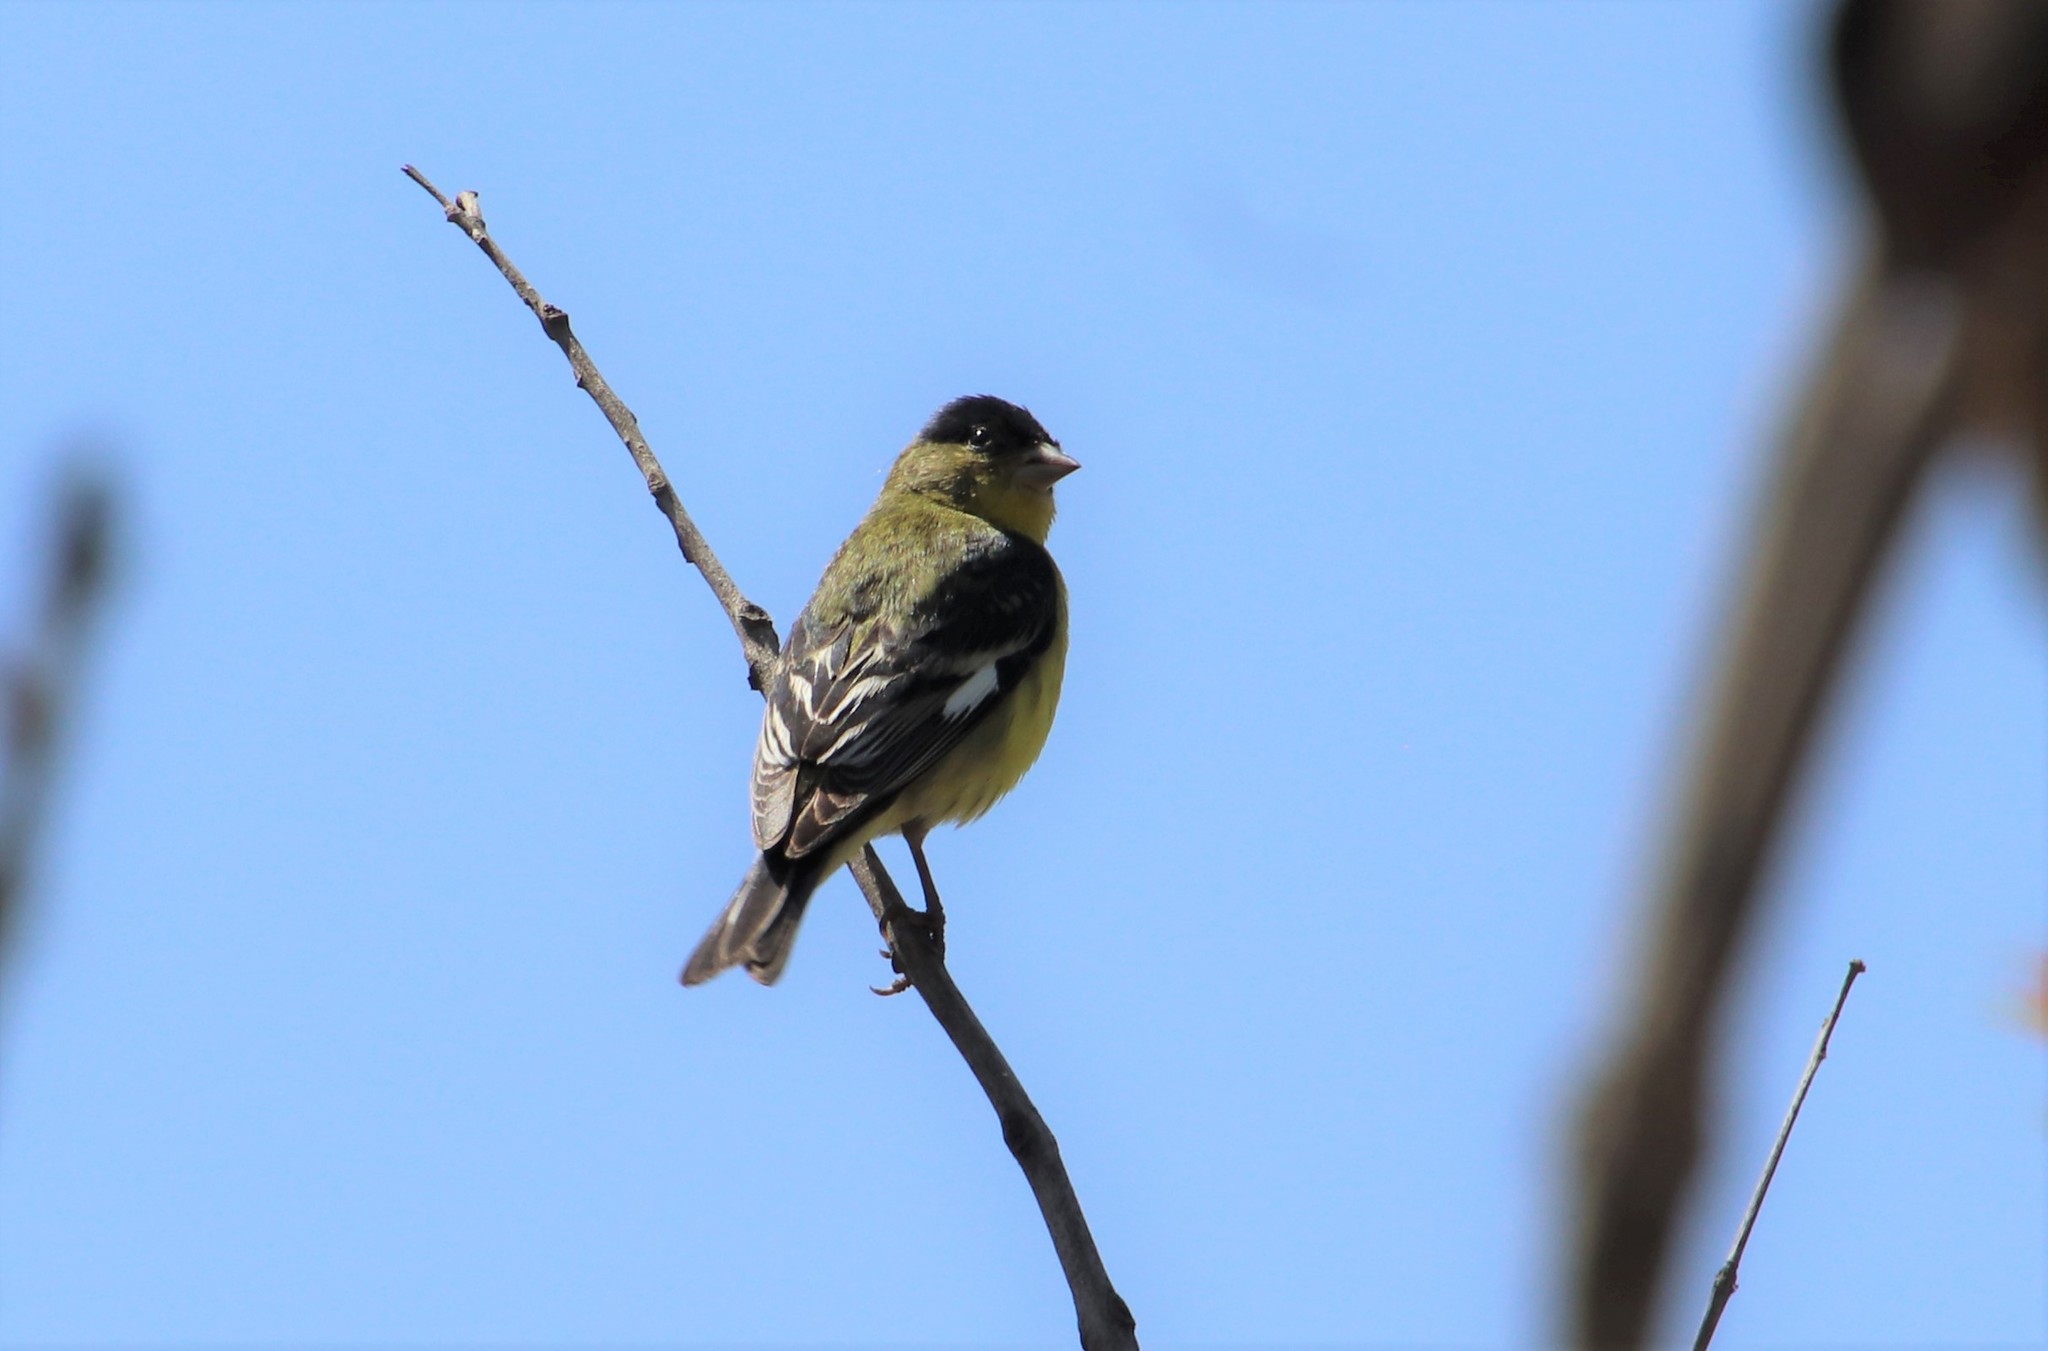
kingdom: Animalia
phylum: Chordata
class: Aves
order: Passeriformes
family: Fringillidae
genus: Spinus
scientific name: Spinus psaltria
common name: Lesser goldfinch
